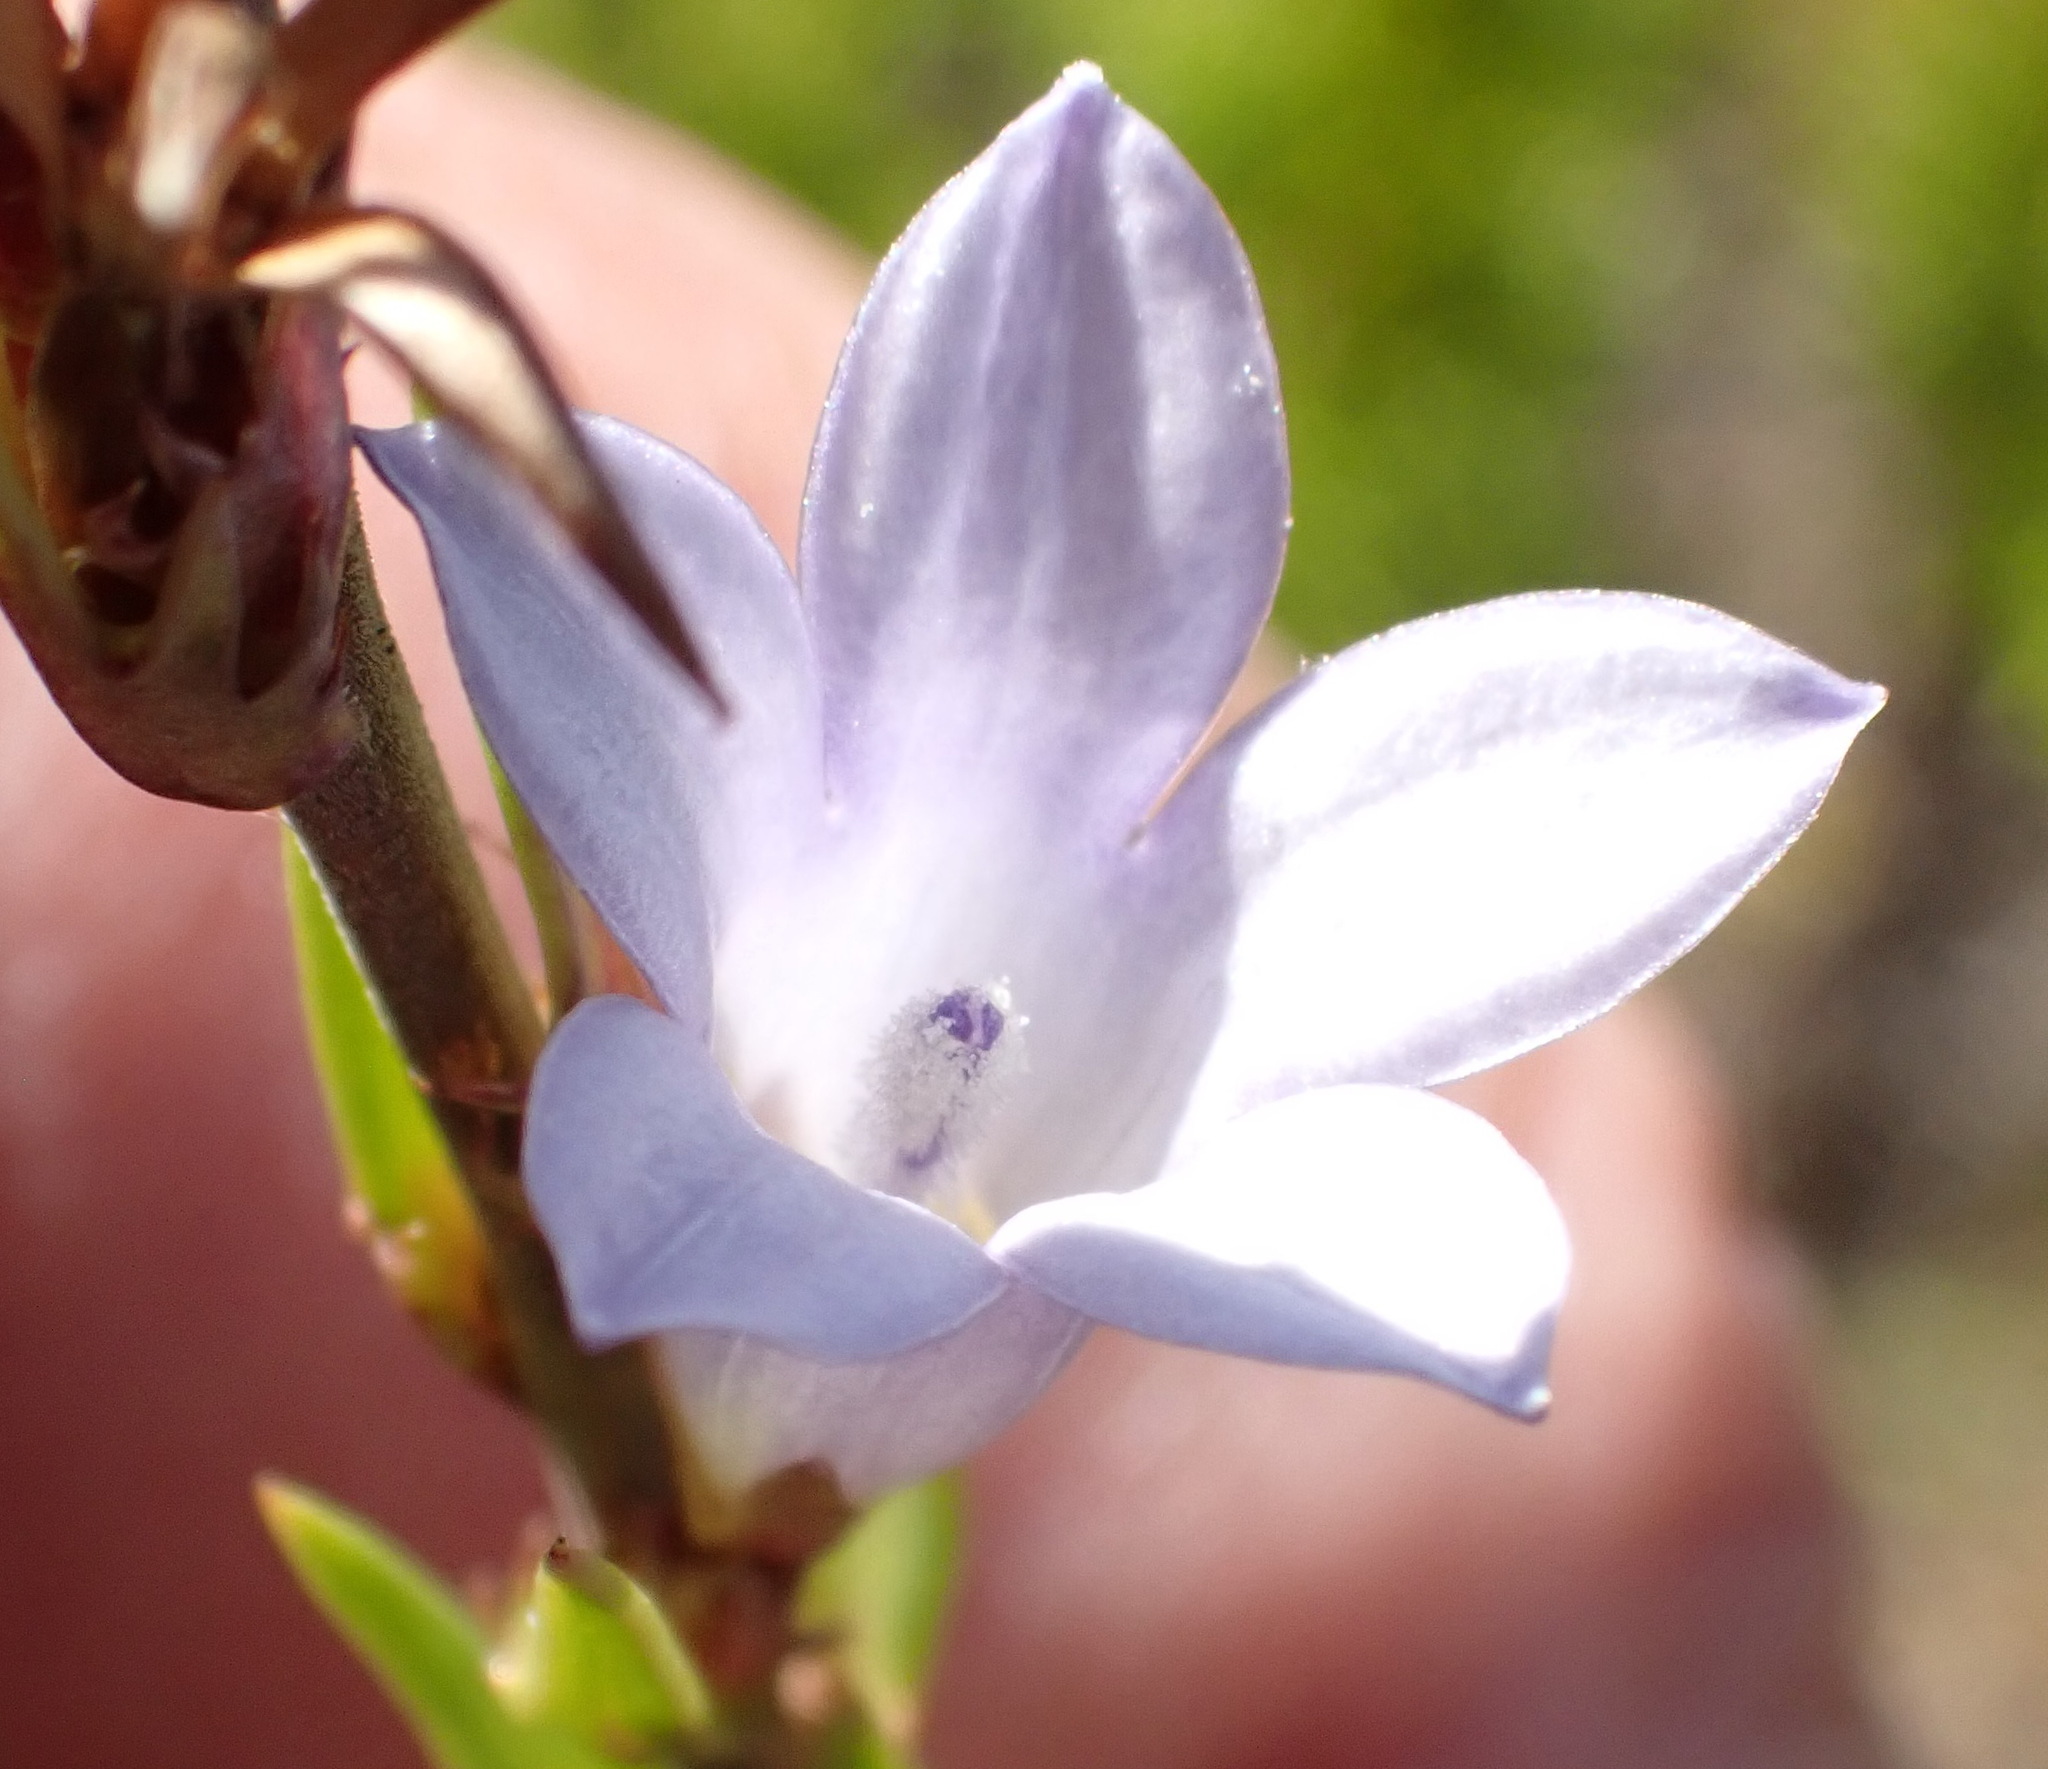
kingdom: Plantae
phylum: Tracheophyta
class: Magnoliopsida
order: Asterales
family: Campanulaceae
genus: Prismatocarpus
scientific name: Prismatocarpus candolleanus
